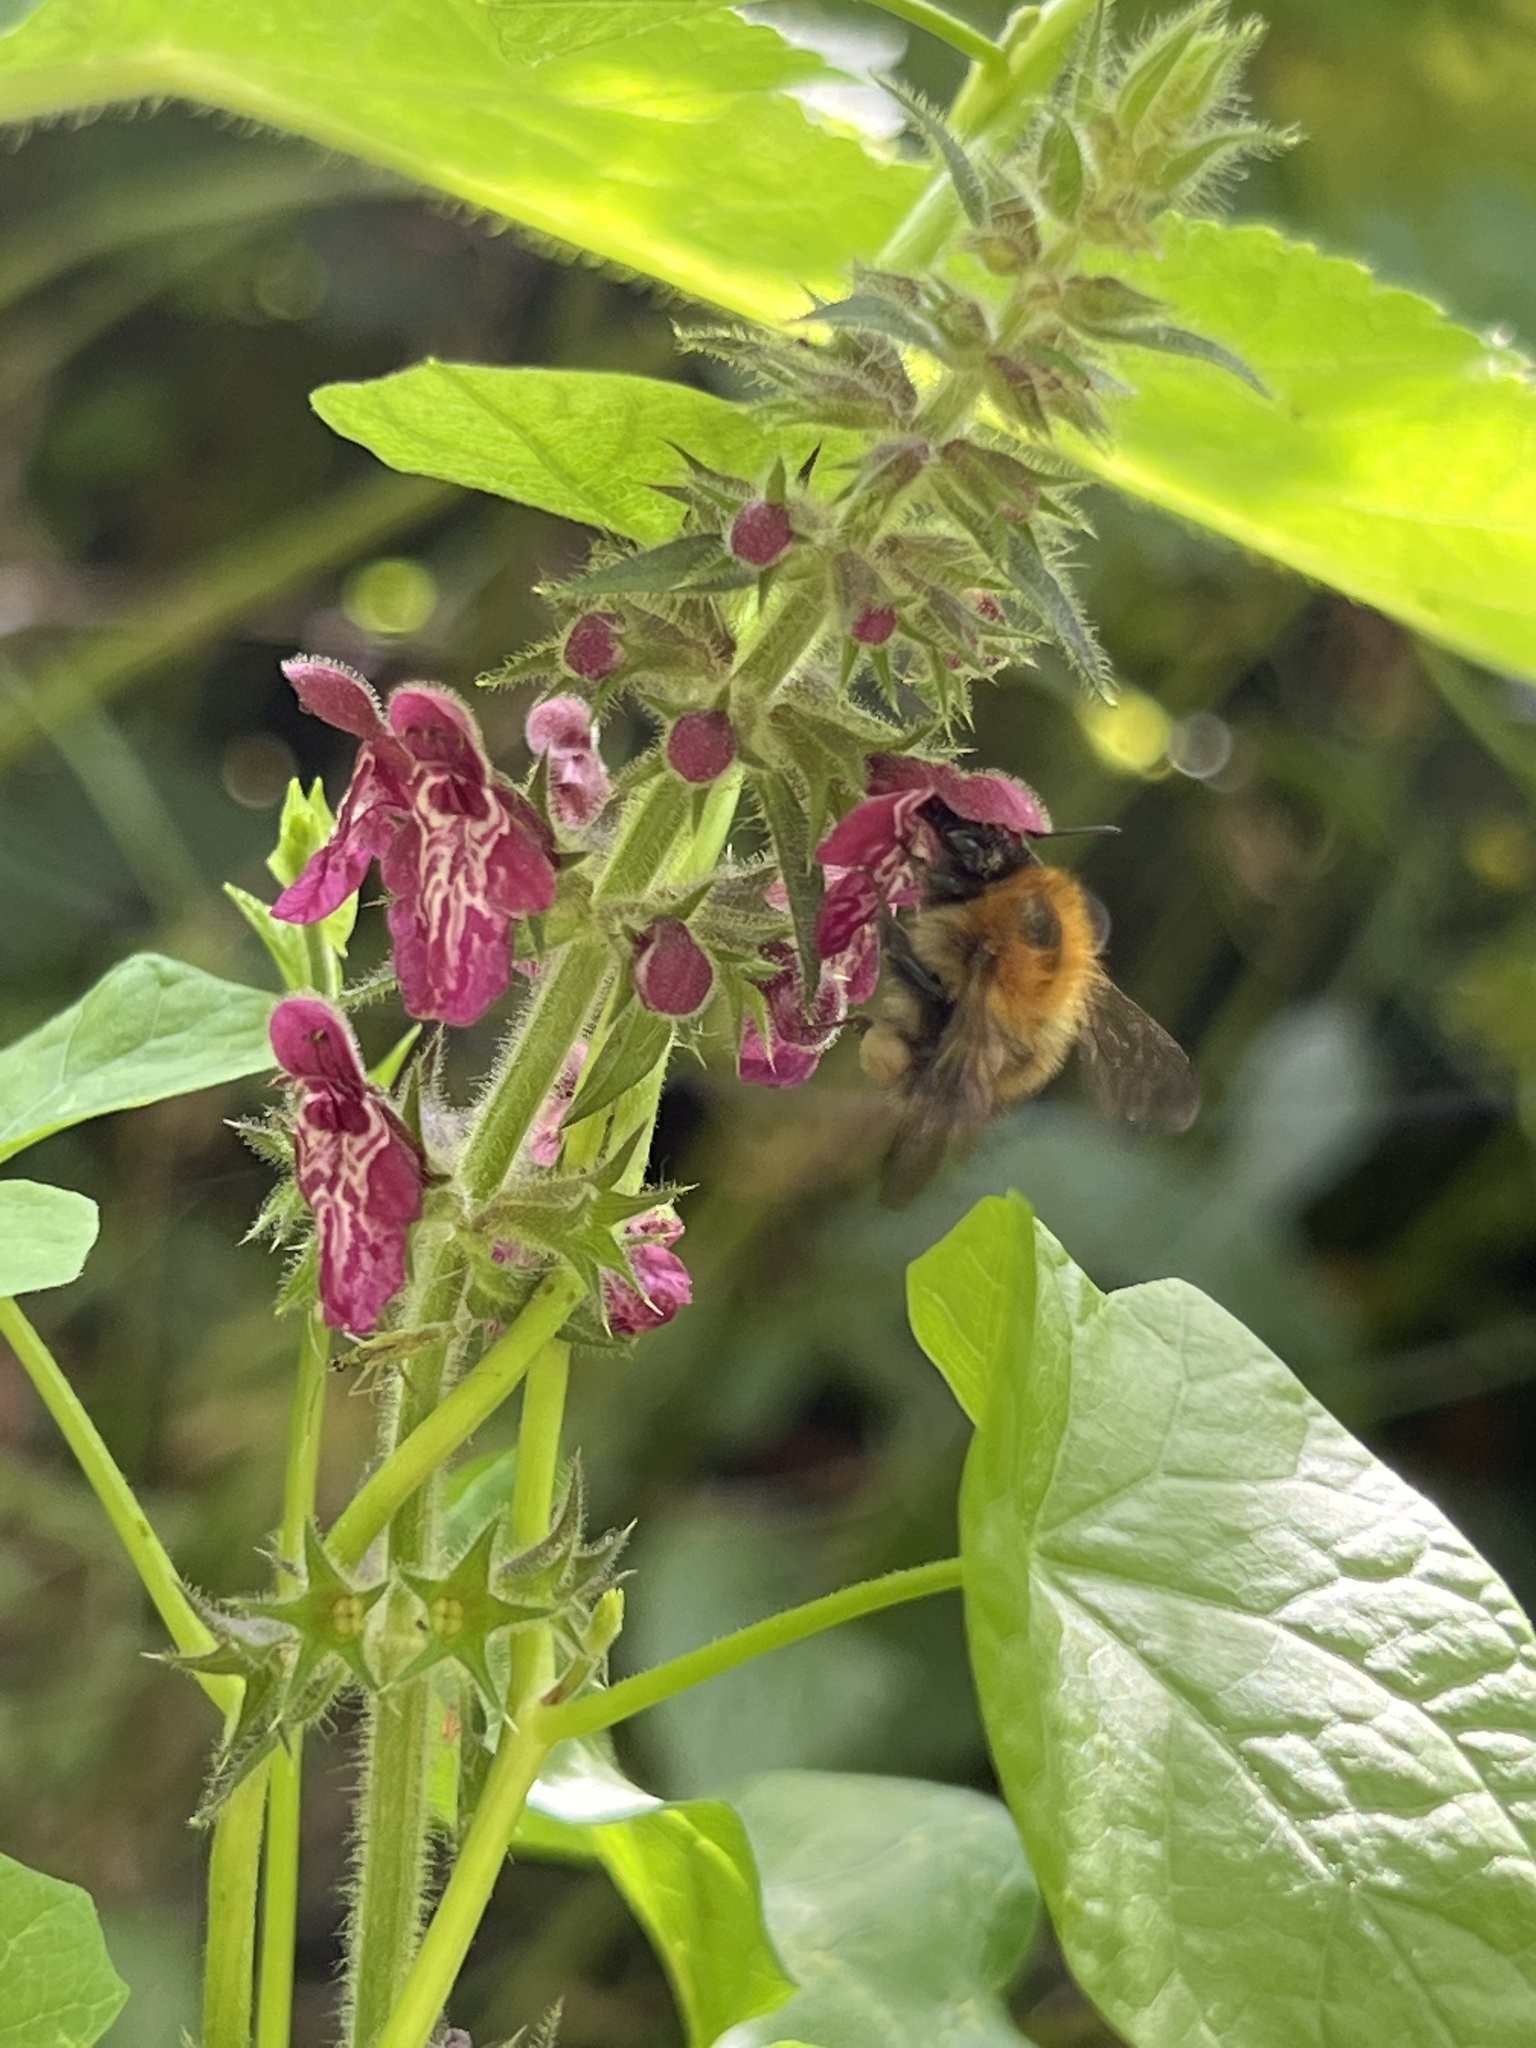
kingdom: Animalia
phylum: Arthropoda
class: Insecta
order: Hymenoptera
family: Apidae
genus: Bombus
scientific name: Bombus pascuorum
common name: Common carder bee
